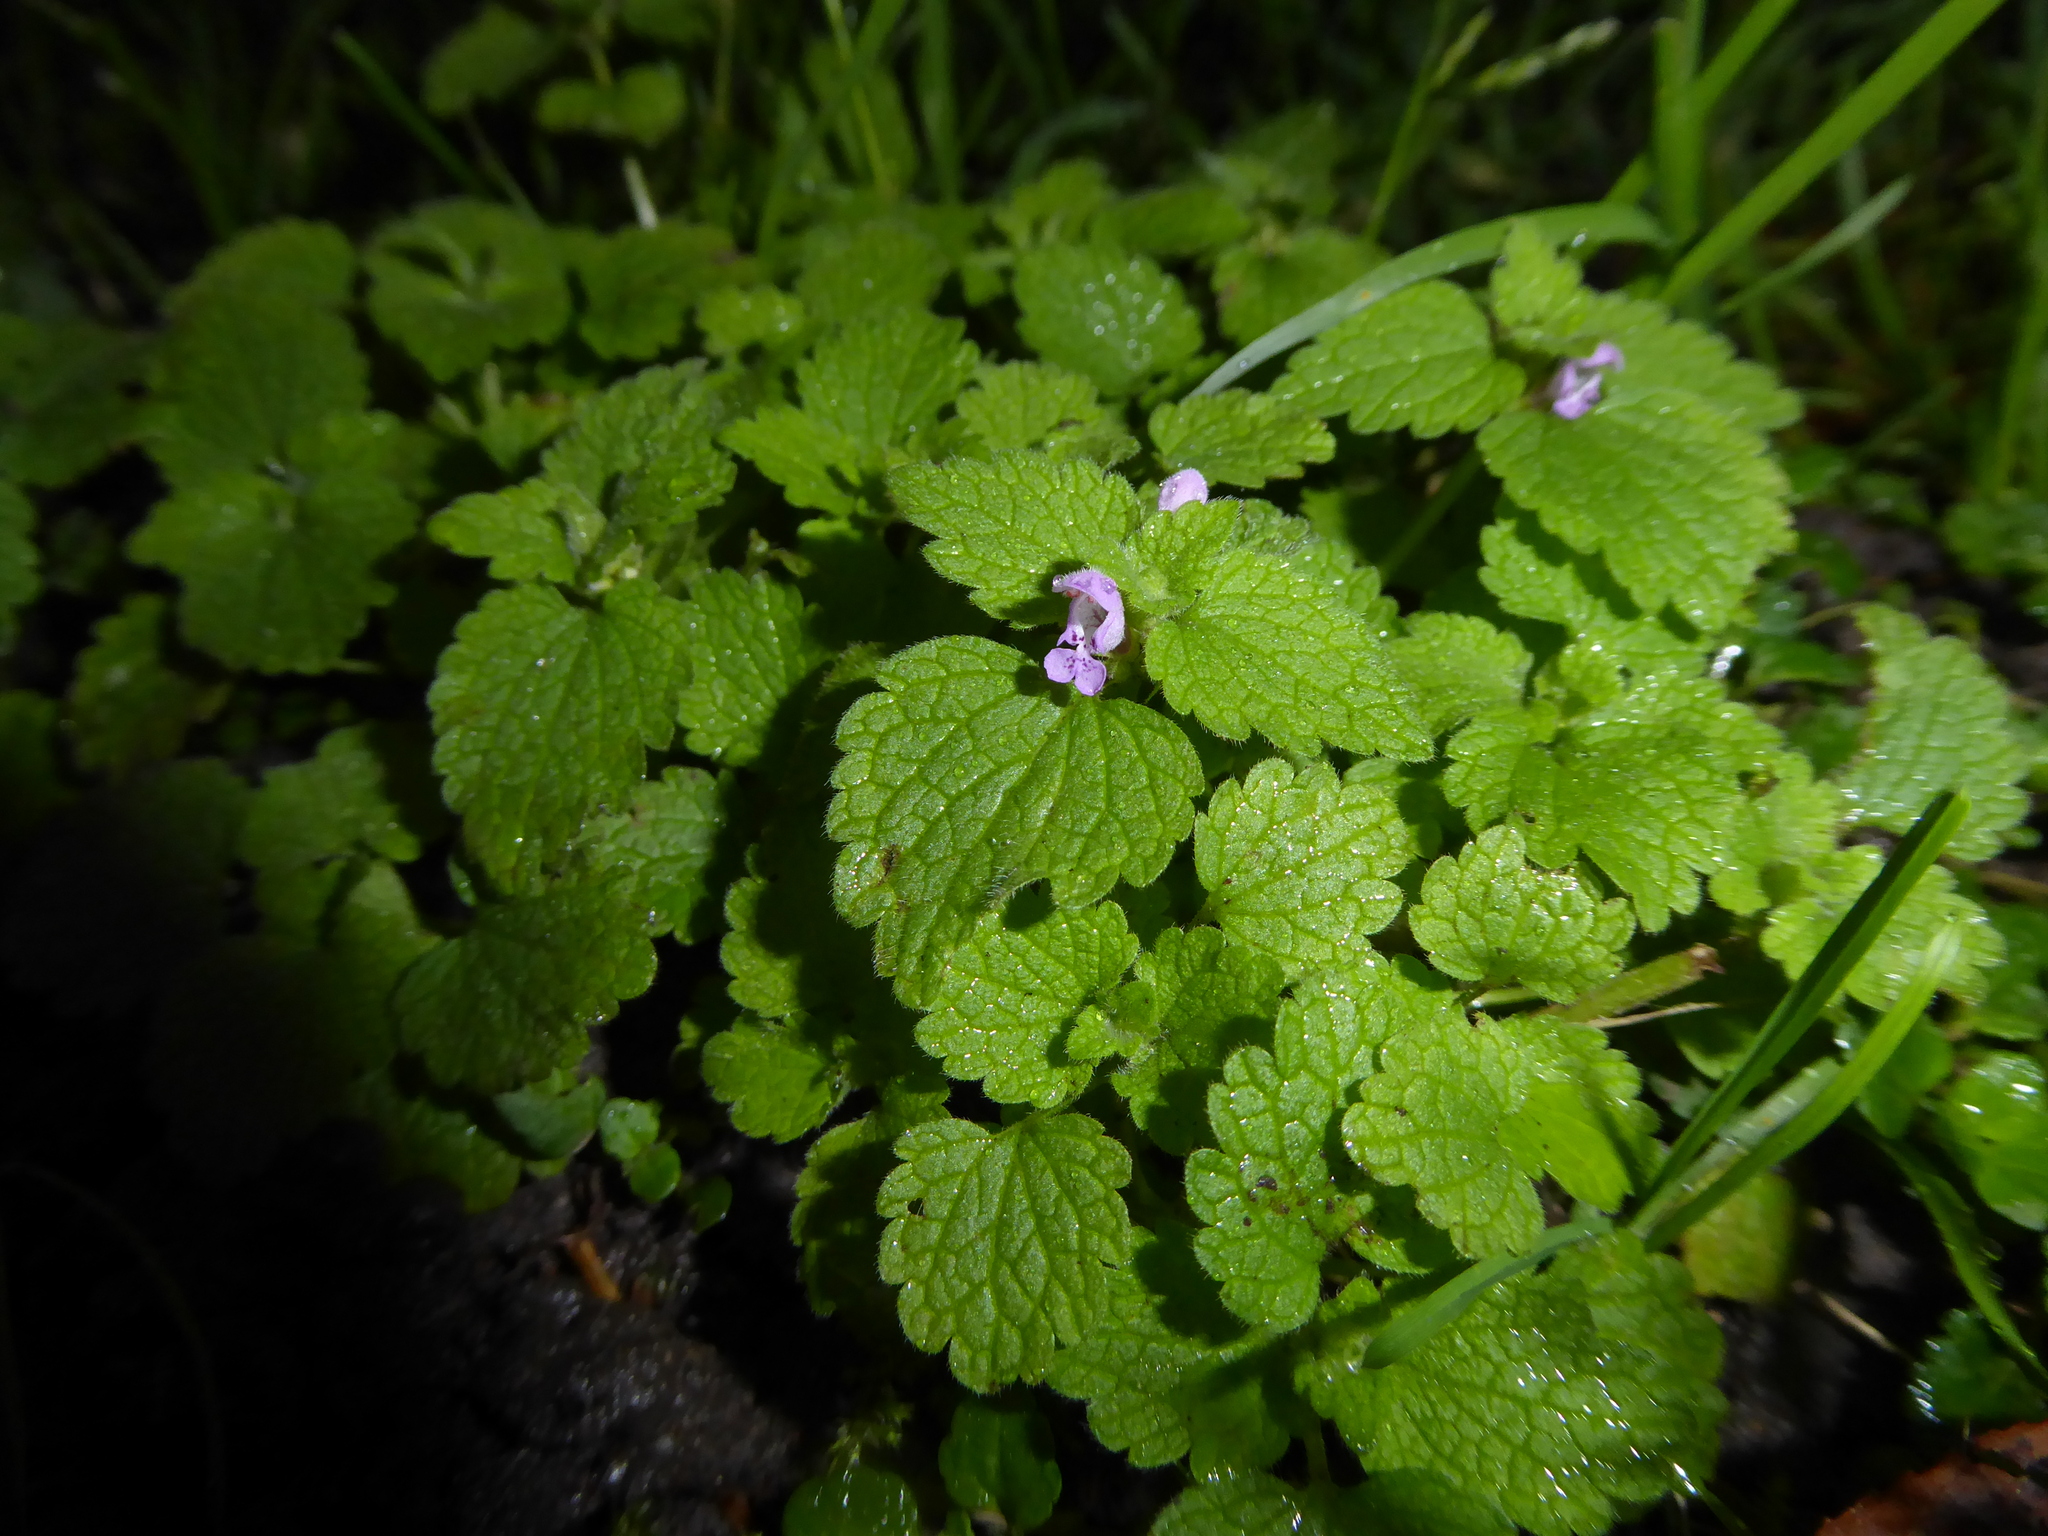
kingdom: Plantae
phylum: Tracheophyta
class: Magnoliopsida
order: Lamiales
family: Lamiaceae
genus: Lamium
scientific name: Lamium purpureum
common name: Red dead-nettle
